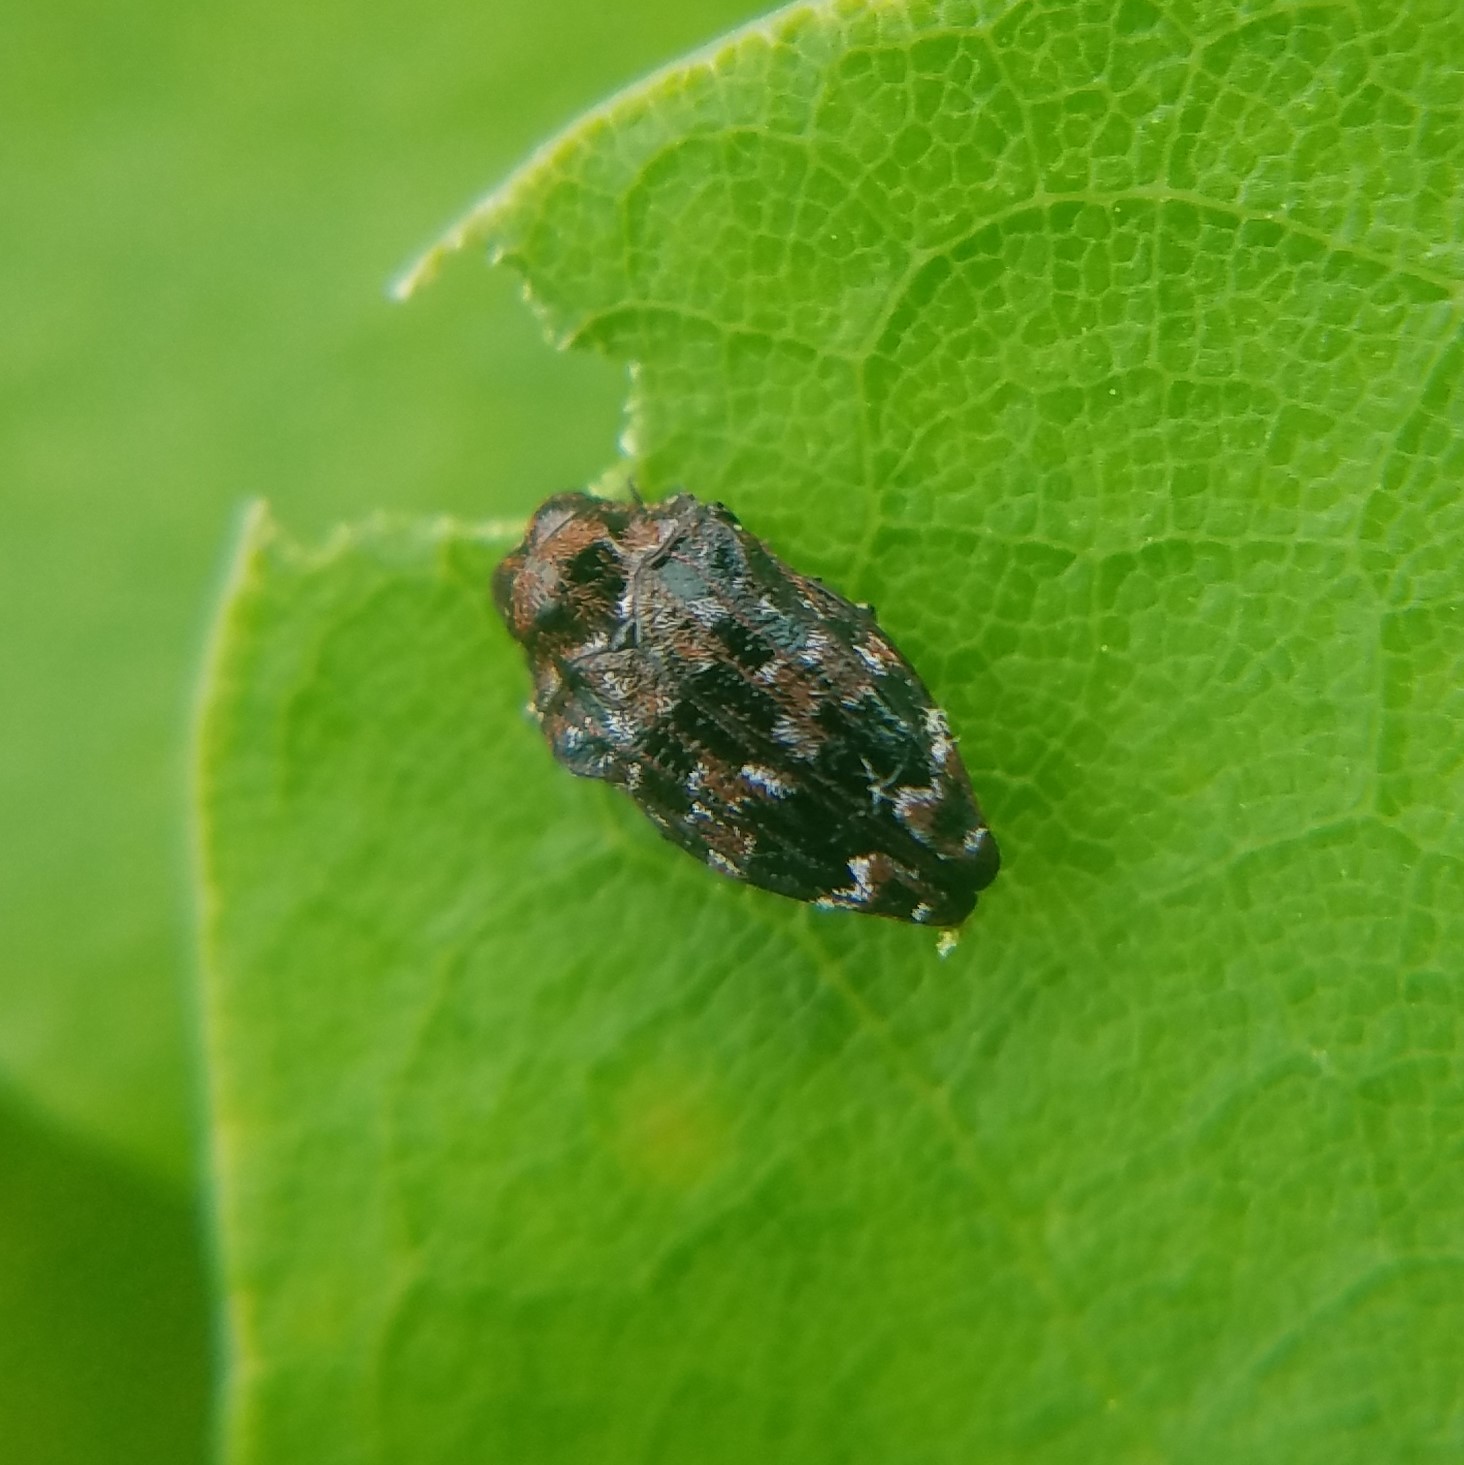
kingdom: Animalia
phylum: Arthropoda
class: Insecta
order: Coleoptera
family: Buprestidae
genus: Brachys
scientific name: Brachys ovatus
